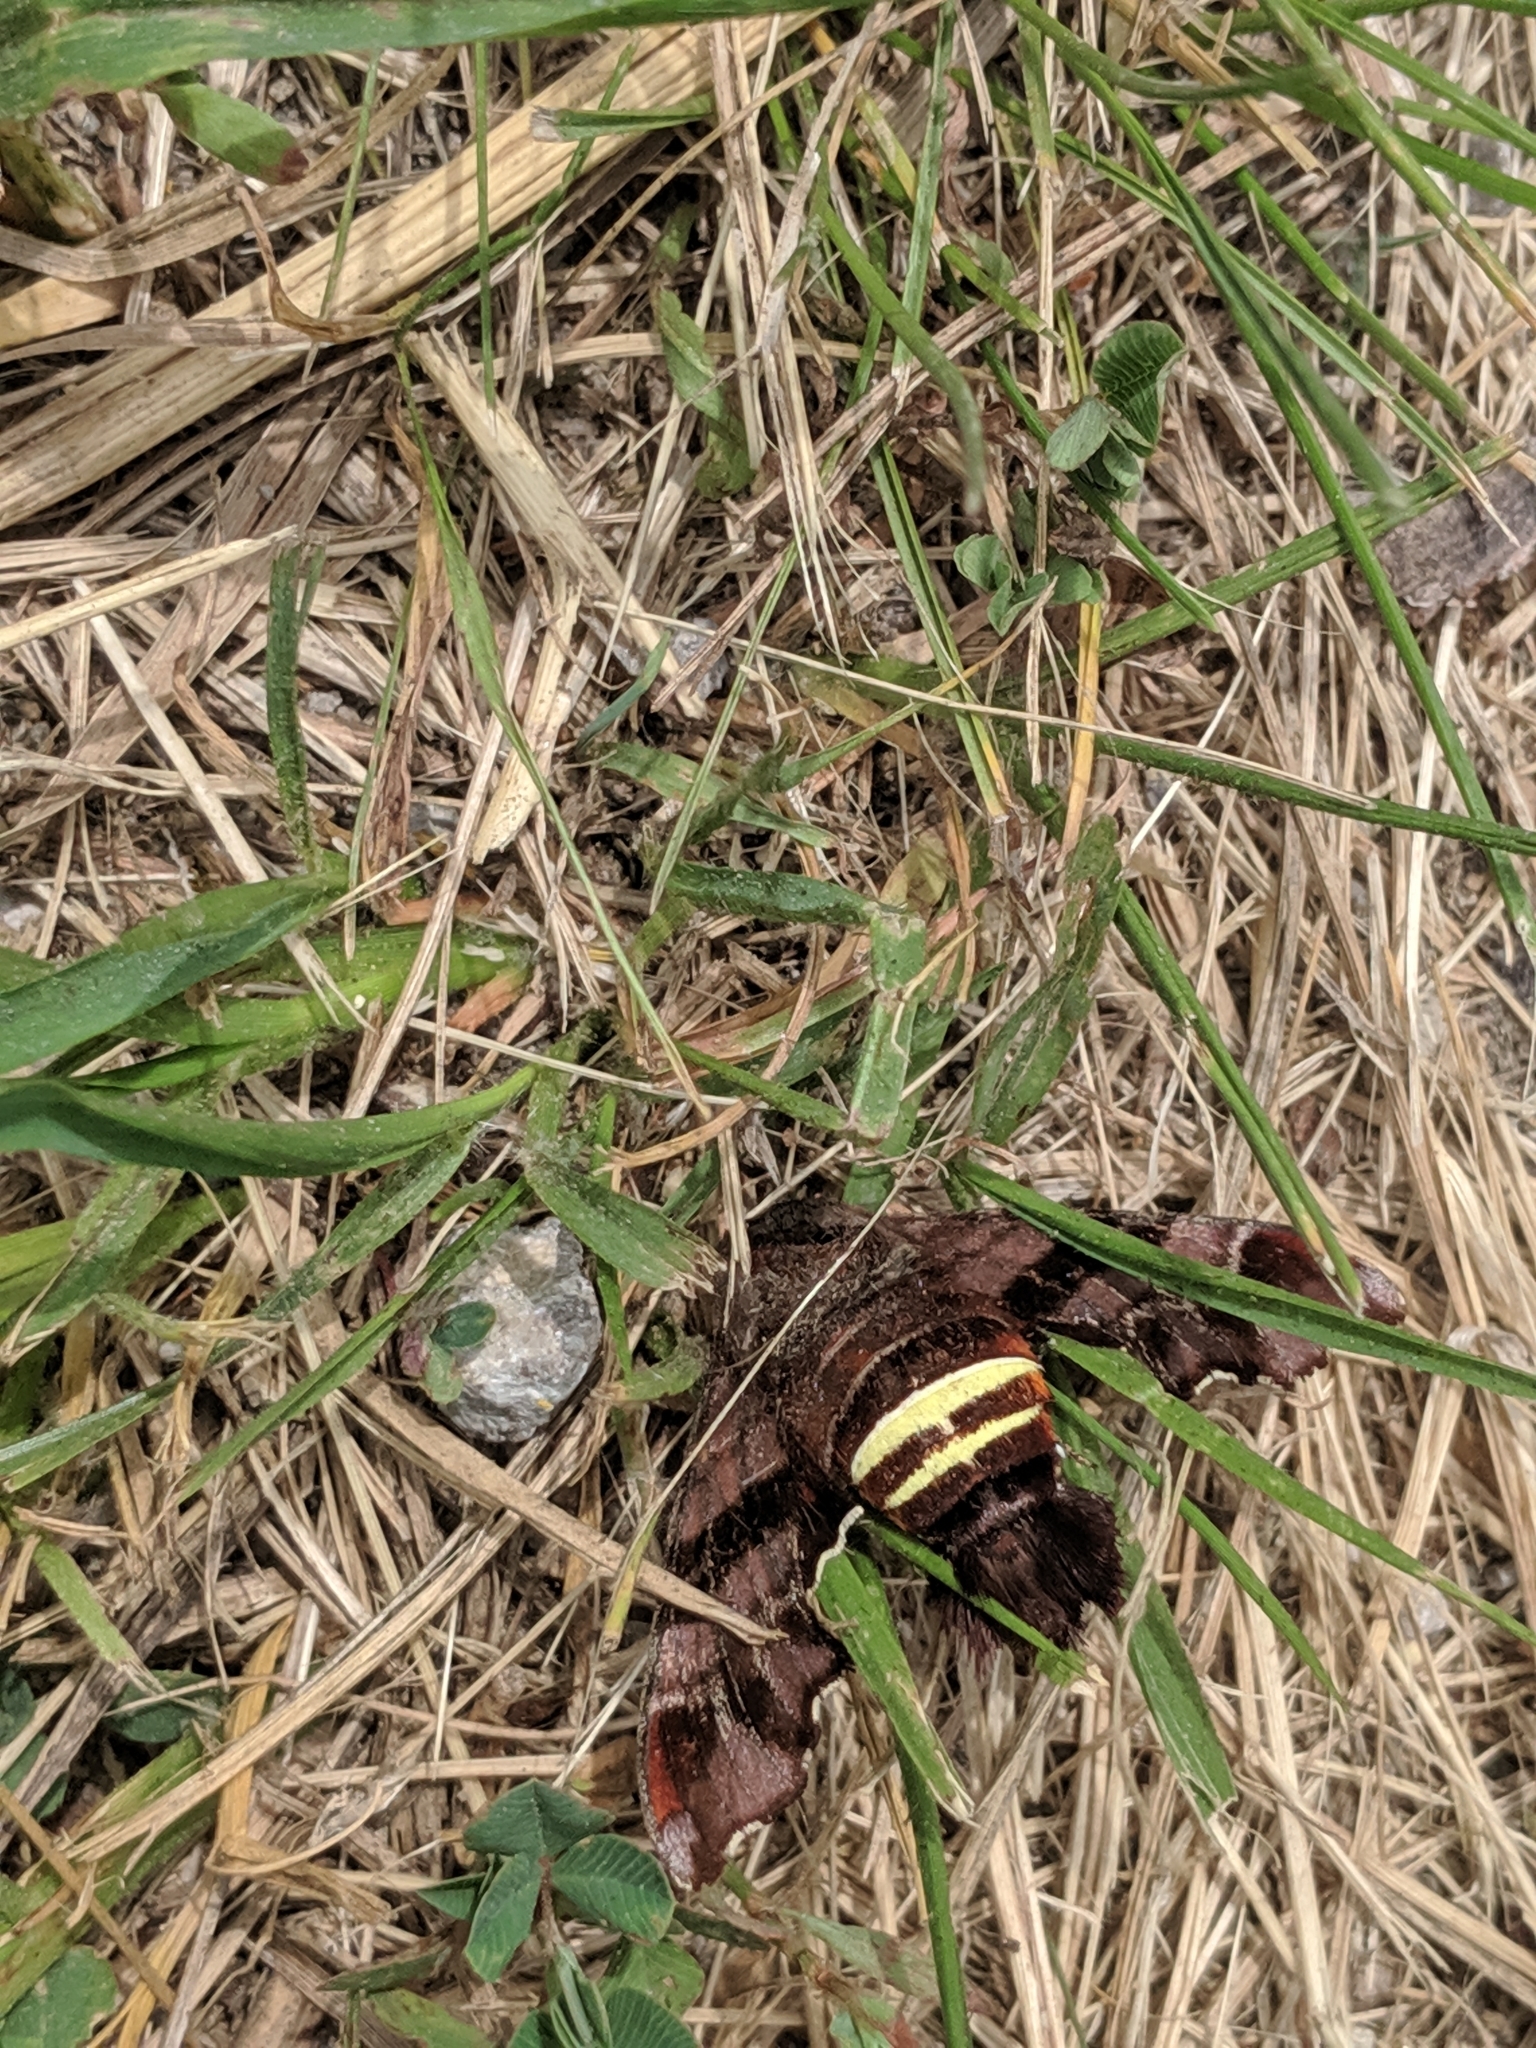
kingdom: Animalia
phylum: Arthropoda
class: Insecta
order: Lepidoptera
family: Sphingidae
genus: Amphion
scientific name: Amphion floridensis
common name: Nessus sphinx
